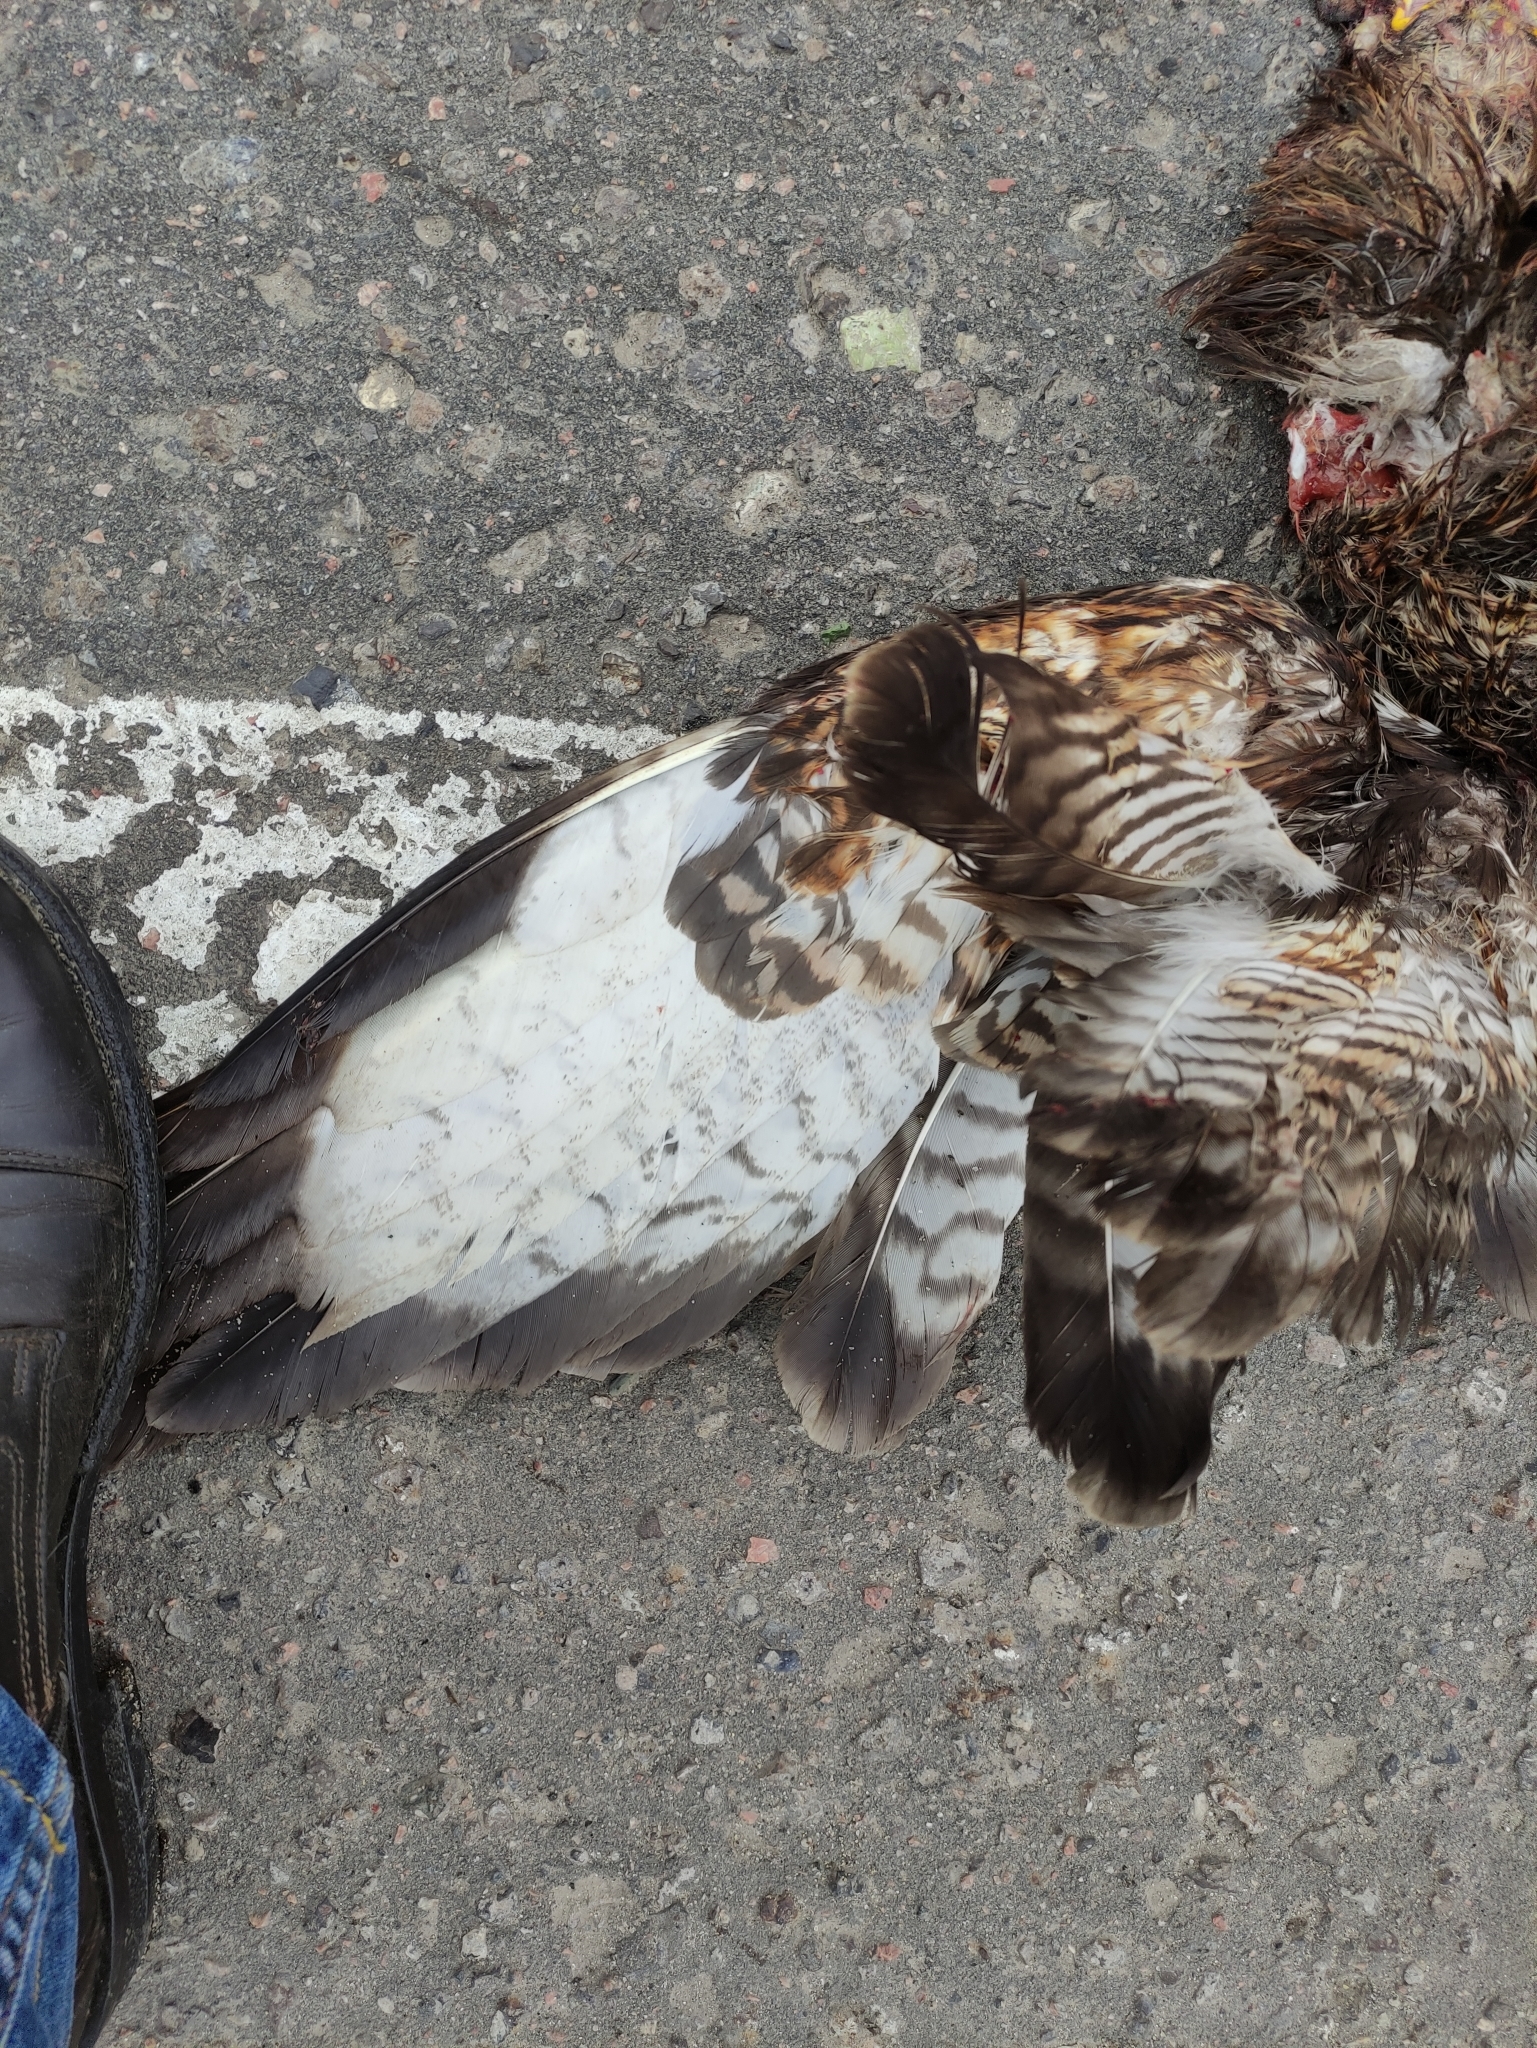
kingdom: Animalia
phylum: Chordata
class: Aves
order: Accipitriformes
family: Accipitridae
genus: Buteo
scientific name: Buteo buteo
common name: Common buzzard
